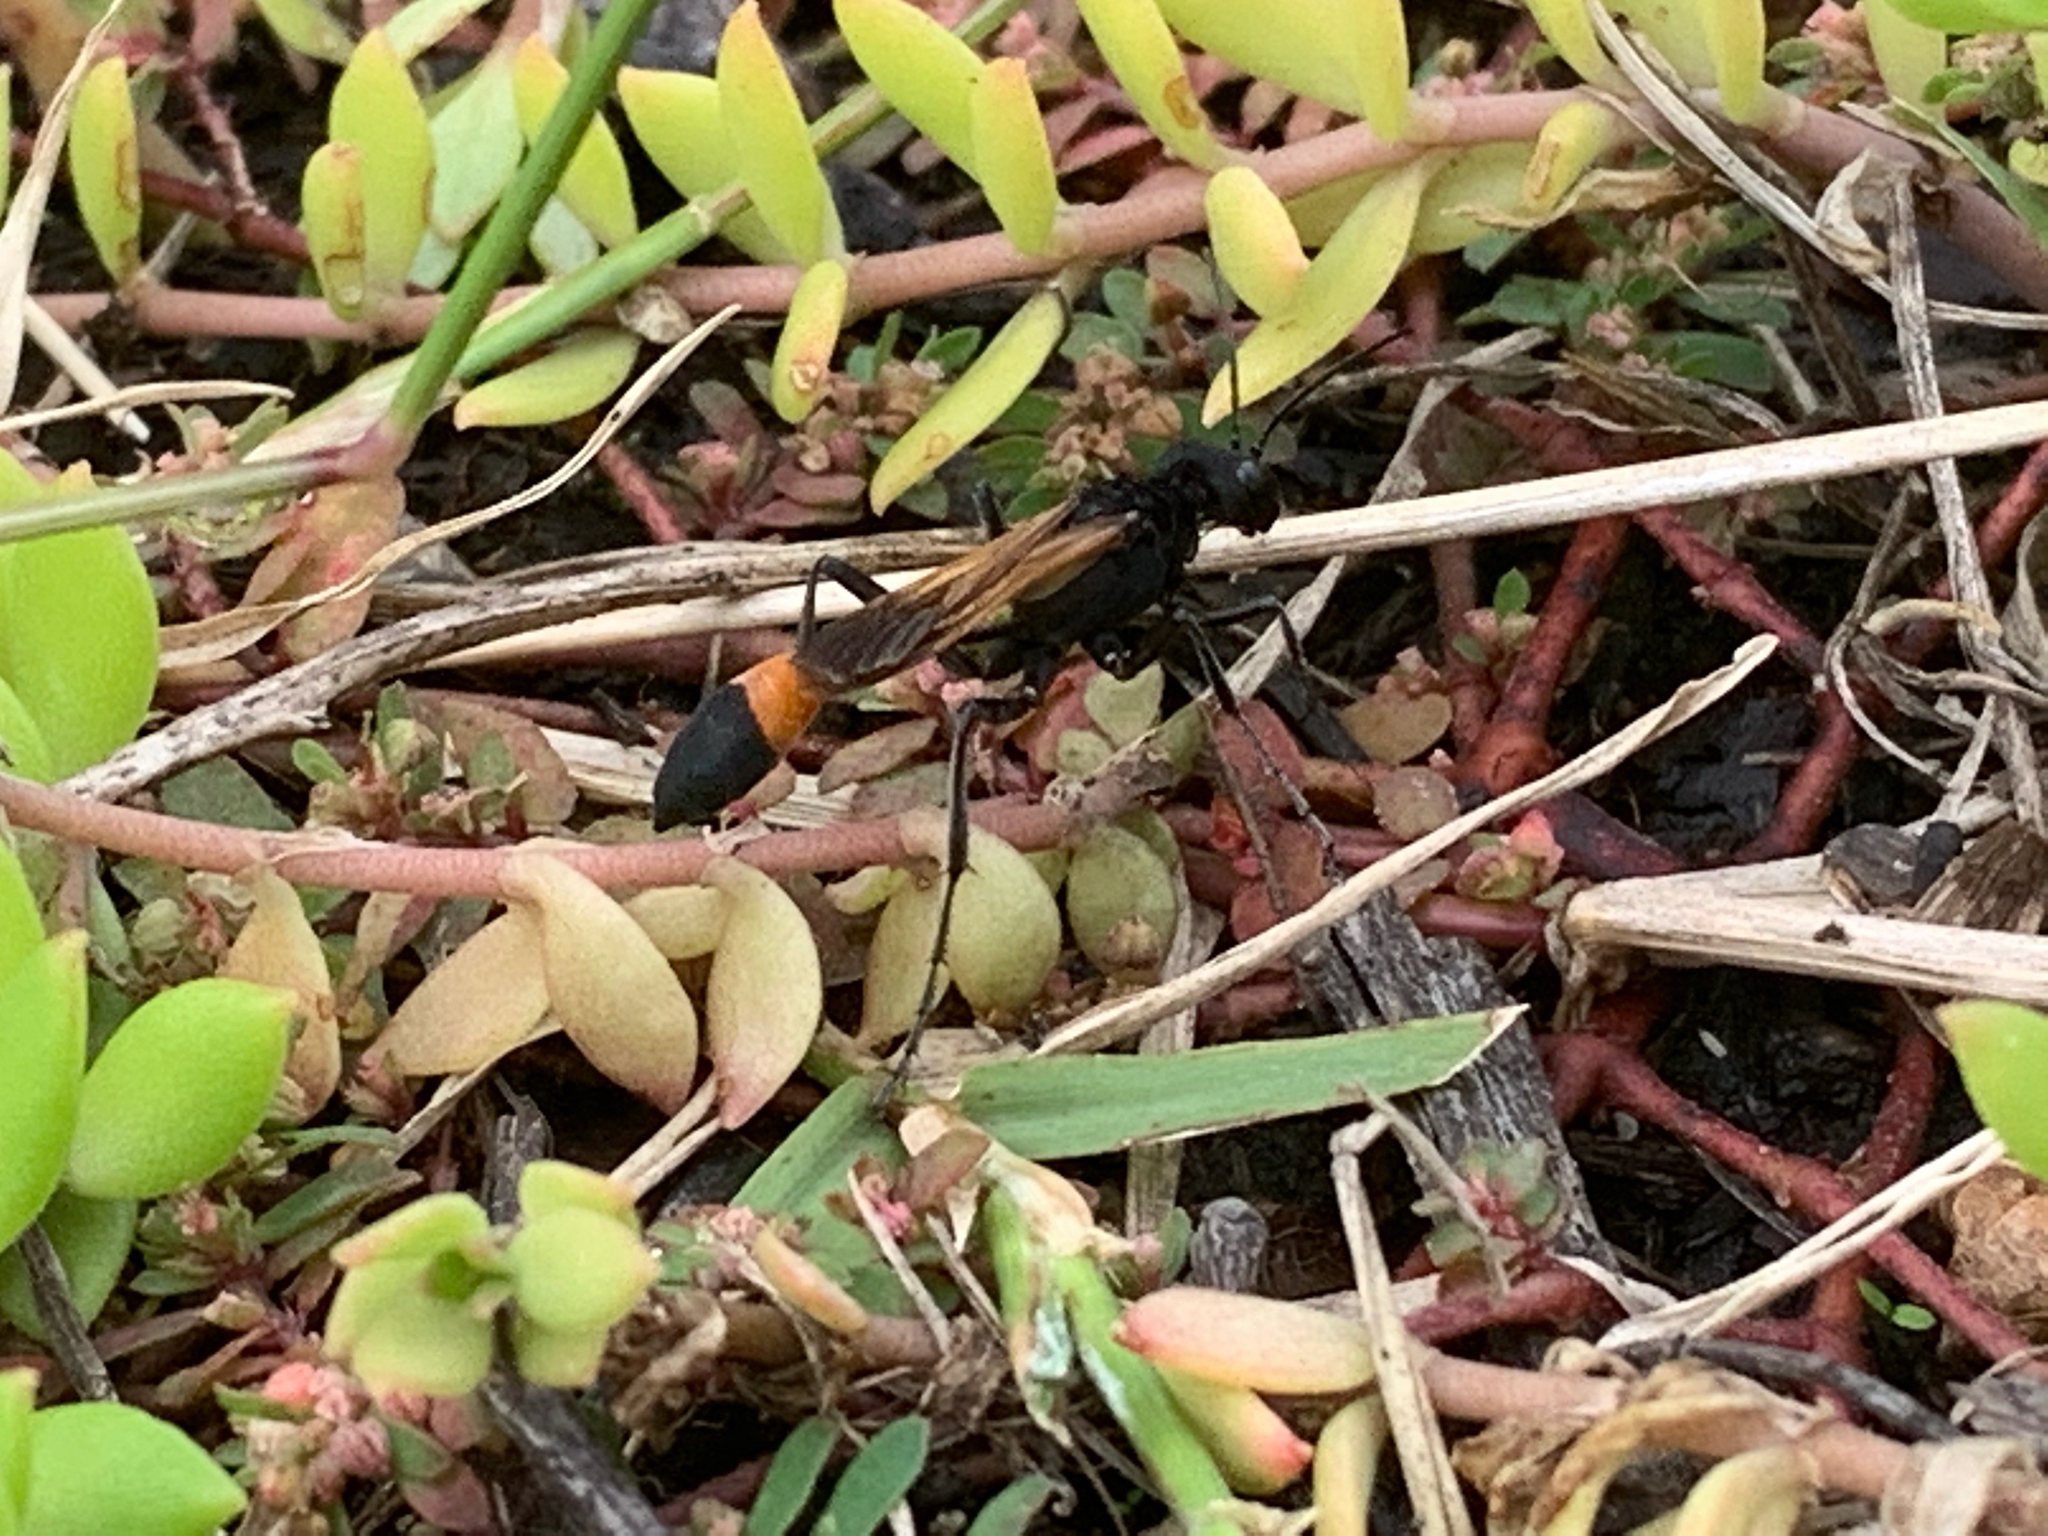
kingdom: Animalia
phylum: Arthropoda
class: Insecta
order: Hymenoptera
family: Sphecidae
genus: Ammophila
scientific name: Ammophila pictipennis
